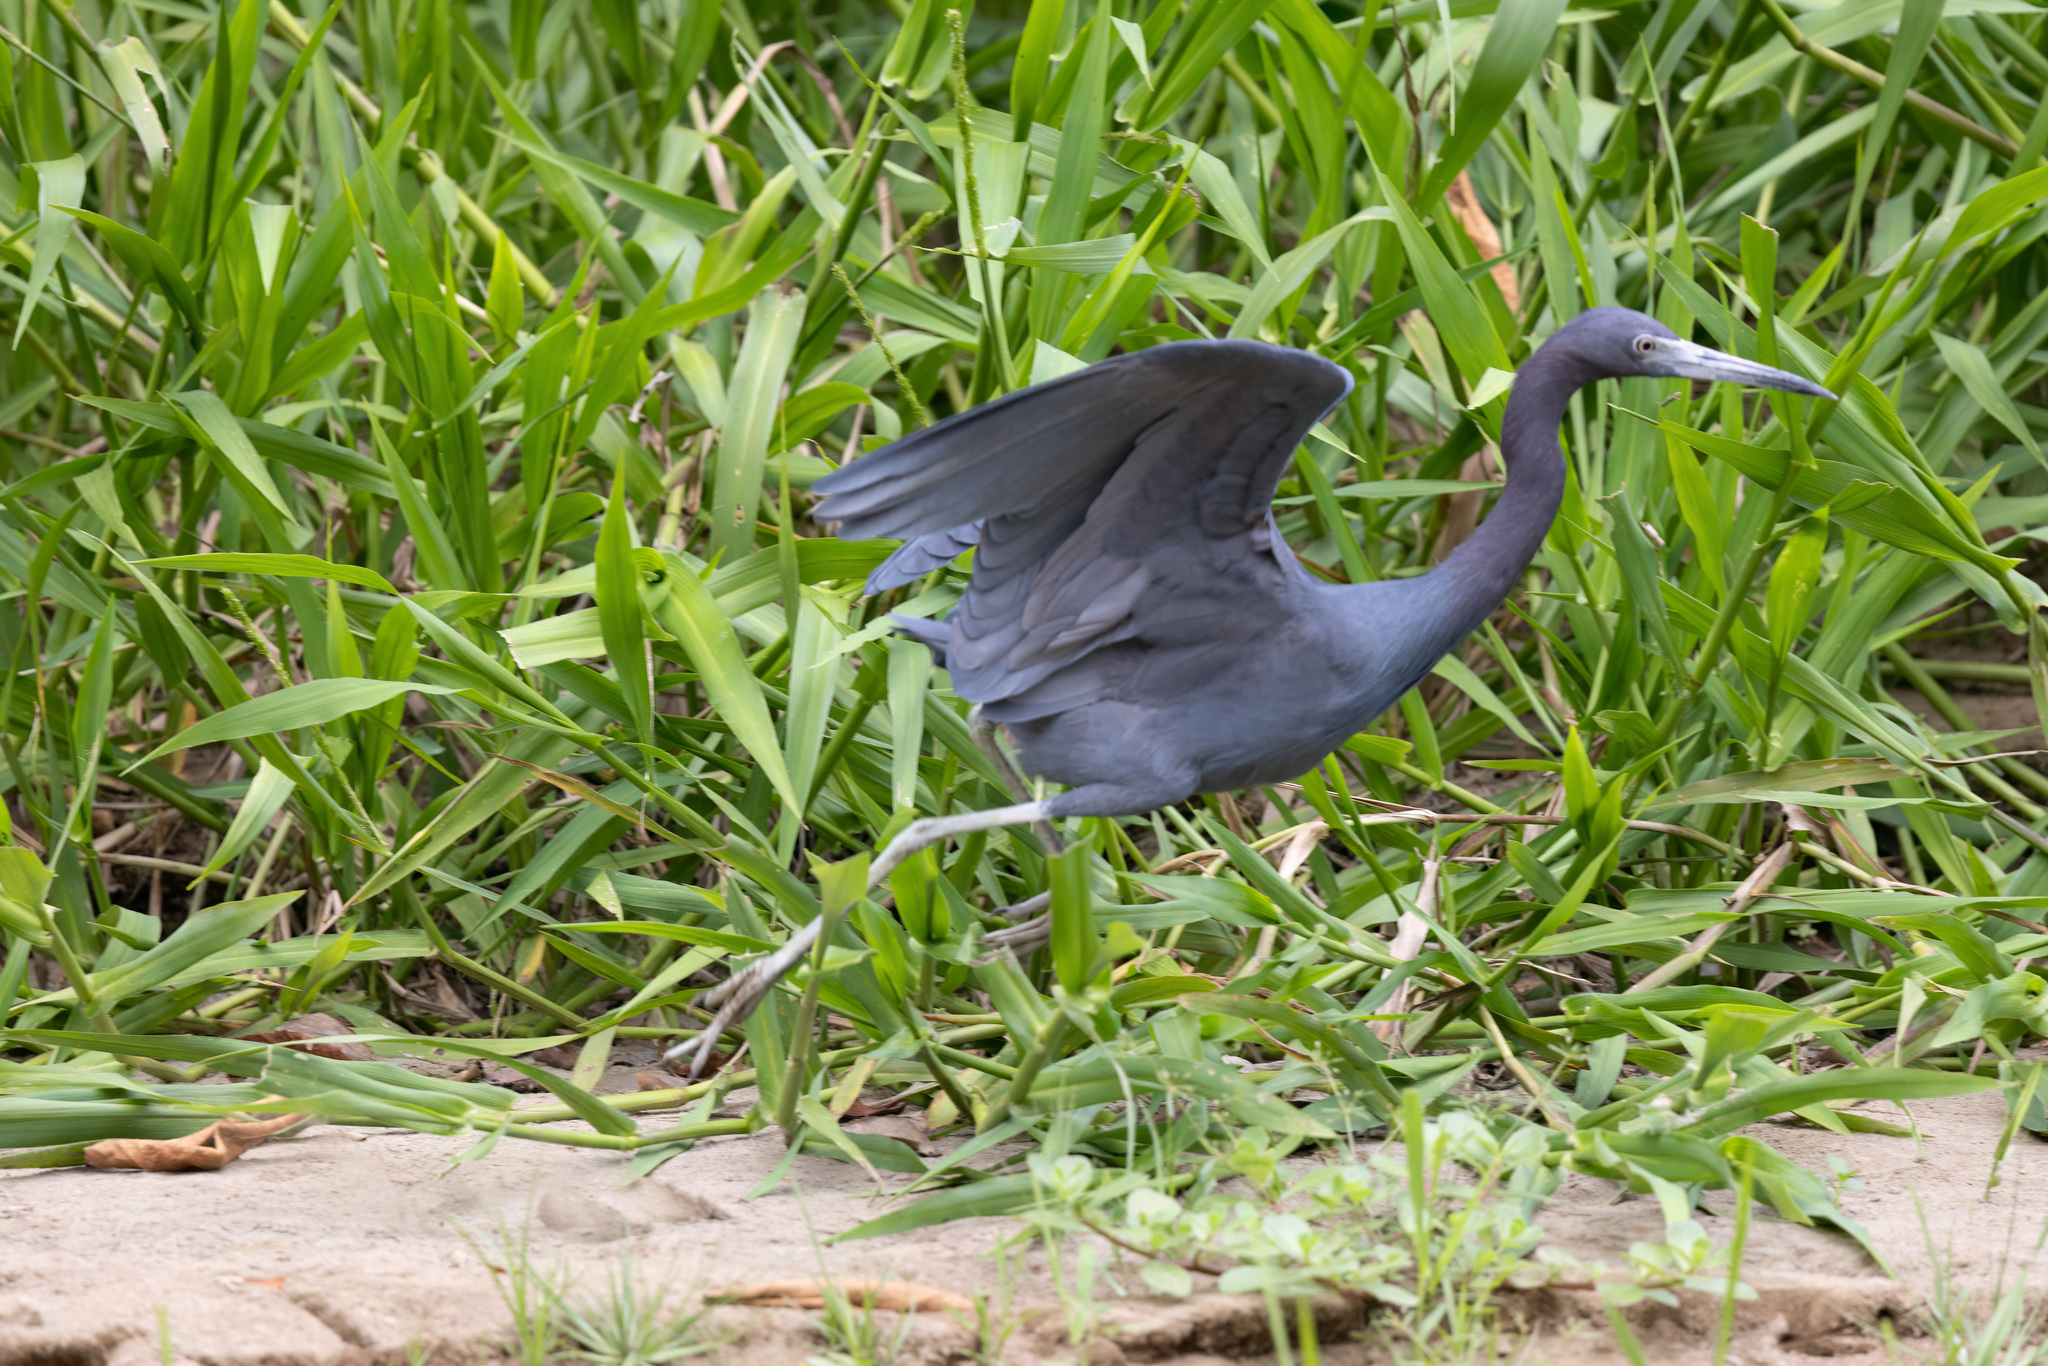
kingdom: Animalia
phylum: Chordata
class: Aves
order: Pelecaniformes
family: Ardeidae
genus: Egretta
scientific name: Egretta caerulea
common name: Little blue heron
